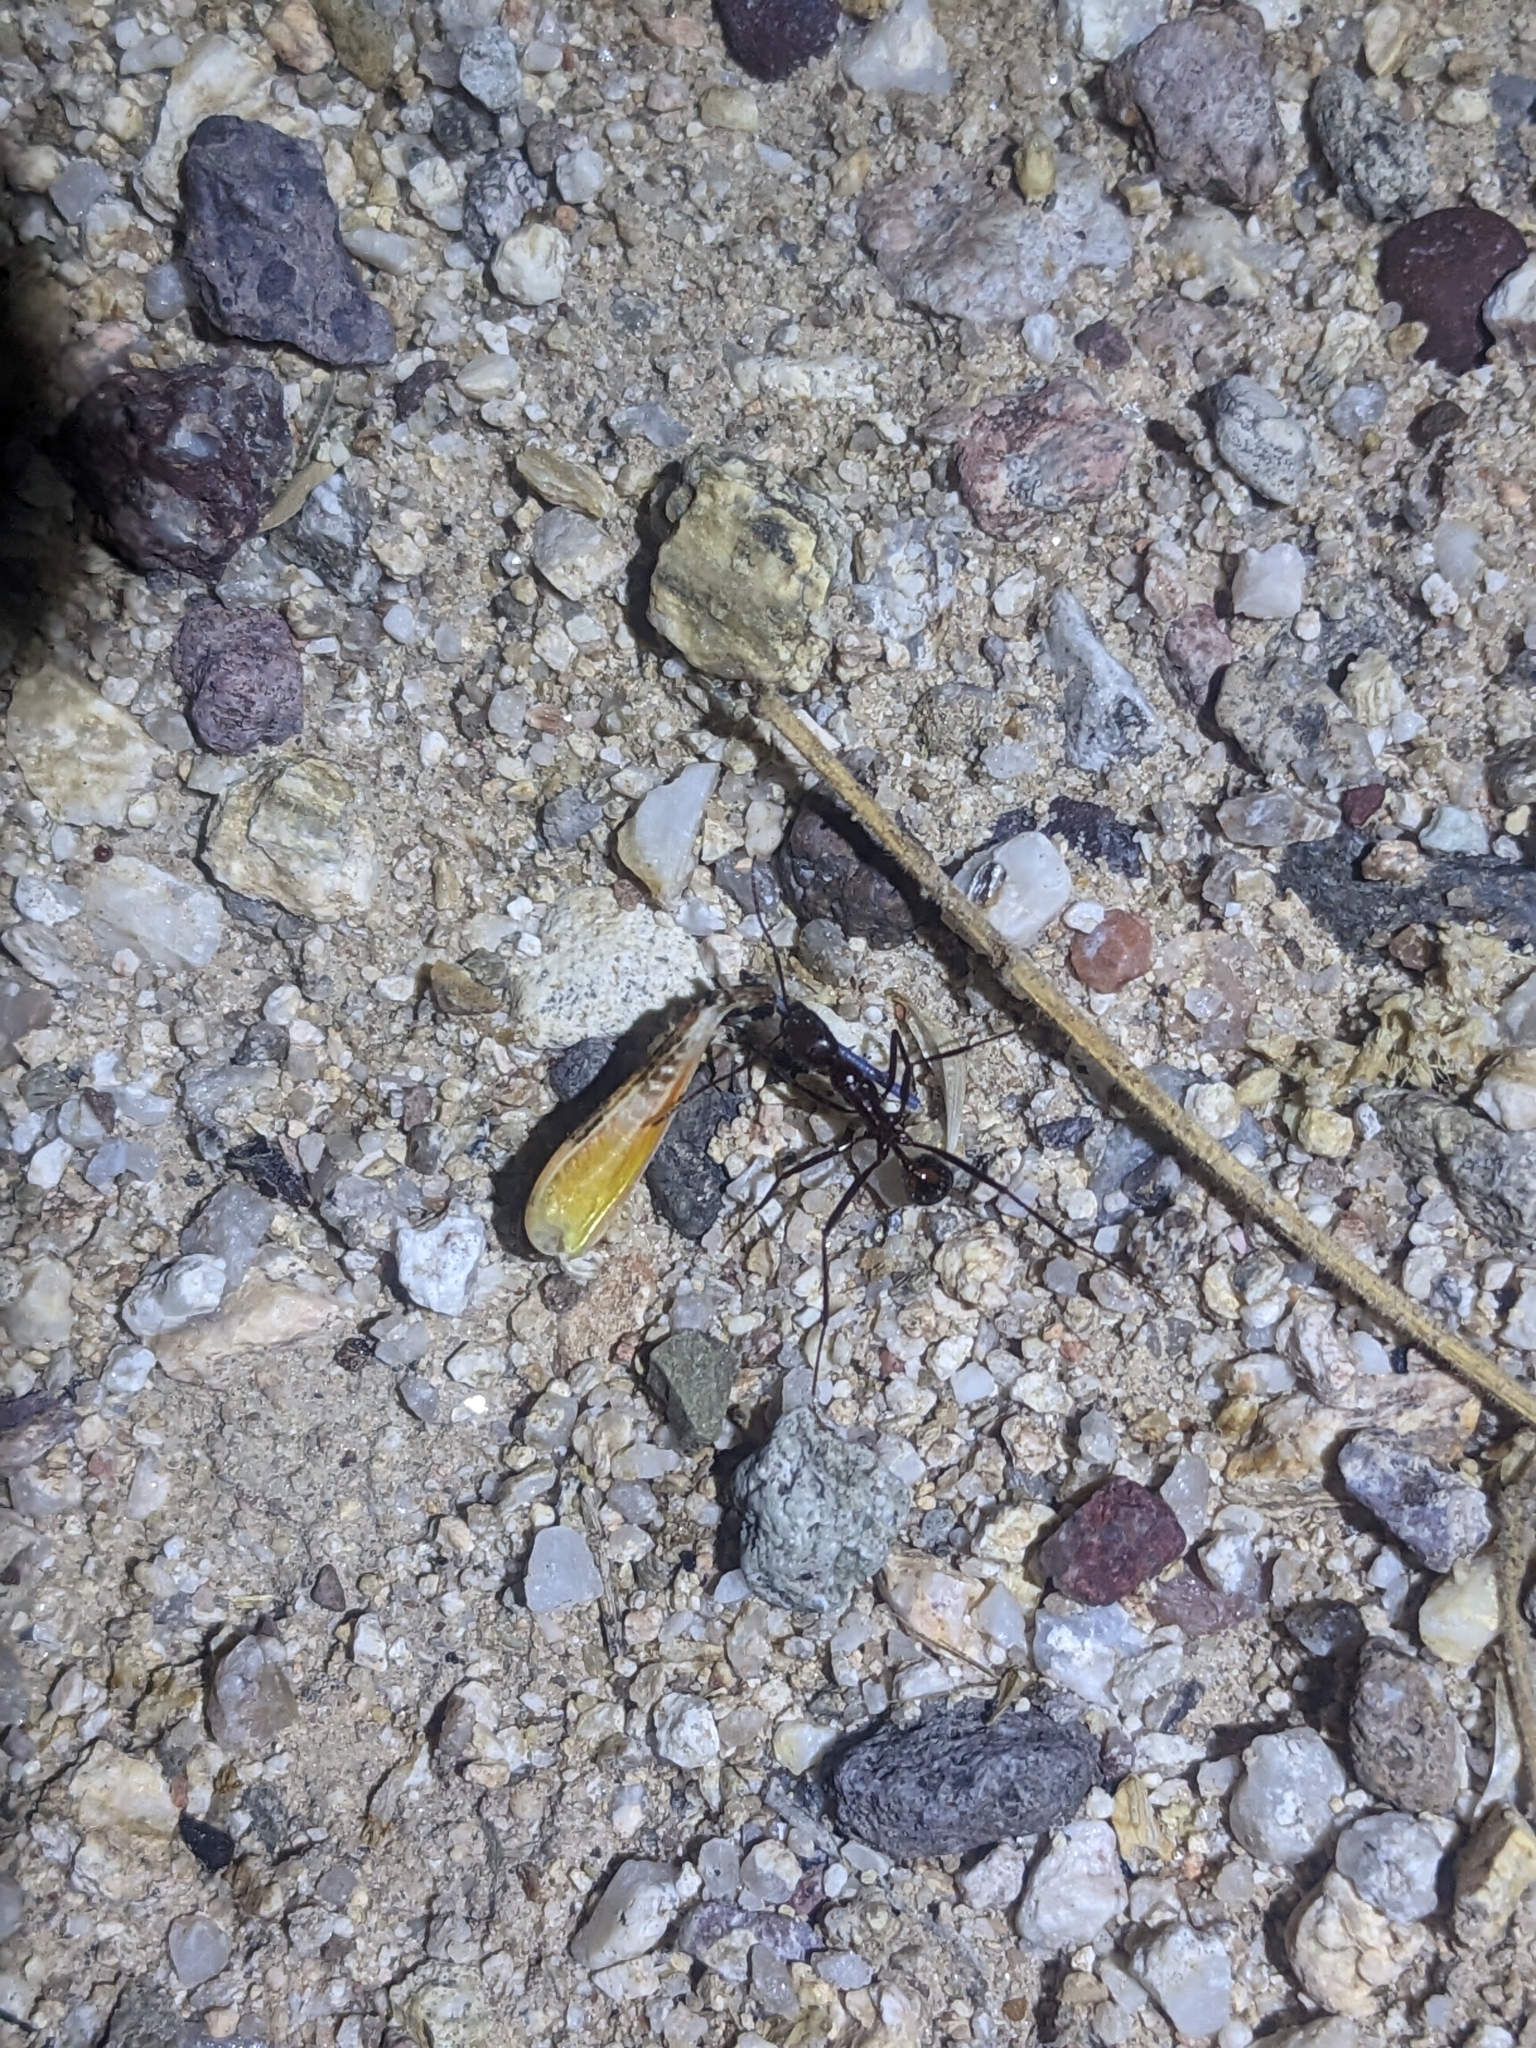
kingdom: Animalia
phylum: Arthropoda
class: Insecta
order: Hymenoptera
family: Formicidae
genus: Novomessor
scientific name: Novomessor cockerelli
